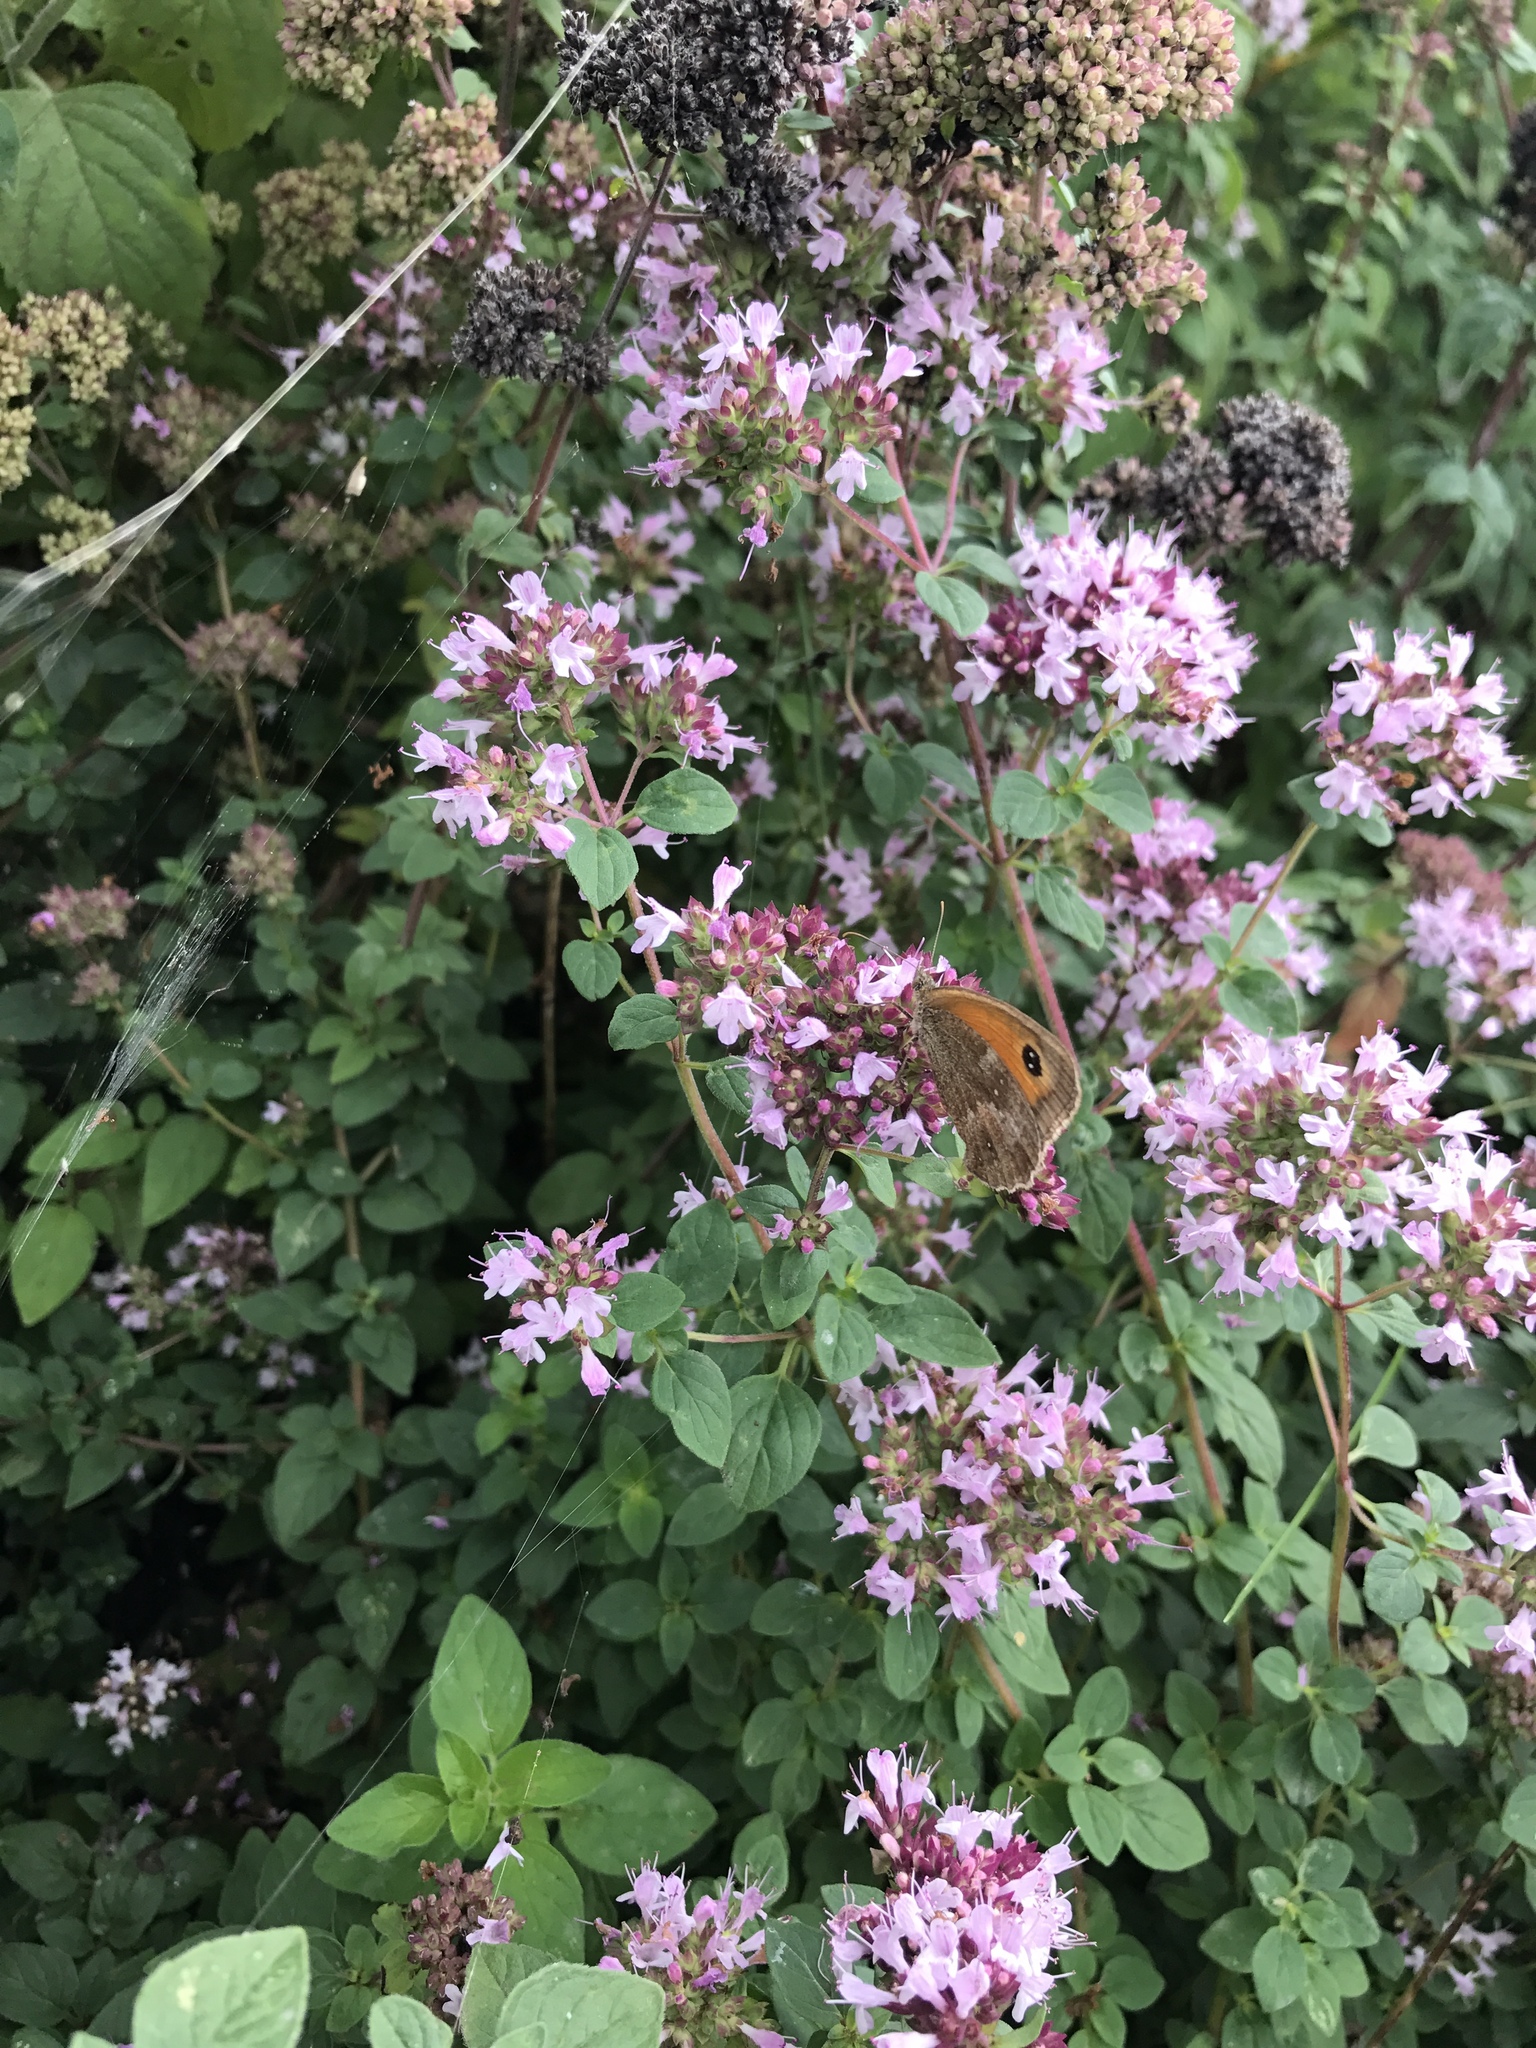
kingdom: Animalia
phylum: Arthropoda
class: Insecta
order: Lepidoptera
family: Nymphalidae
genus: Pyronia
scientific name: Pyronia tithonus
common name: Gatekeeper
